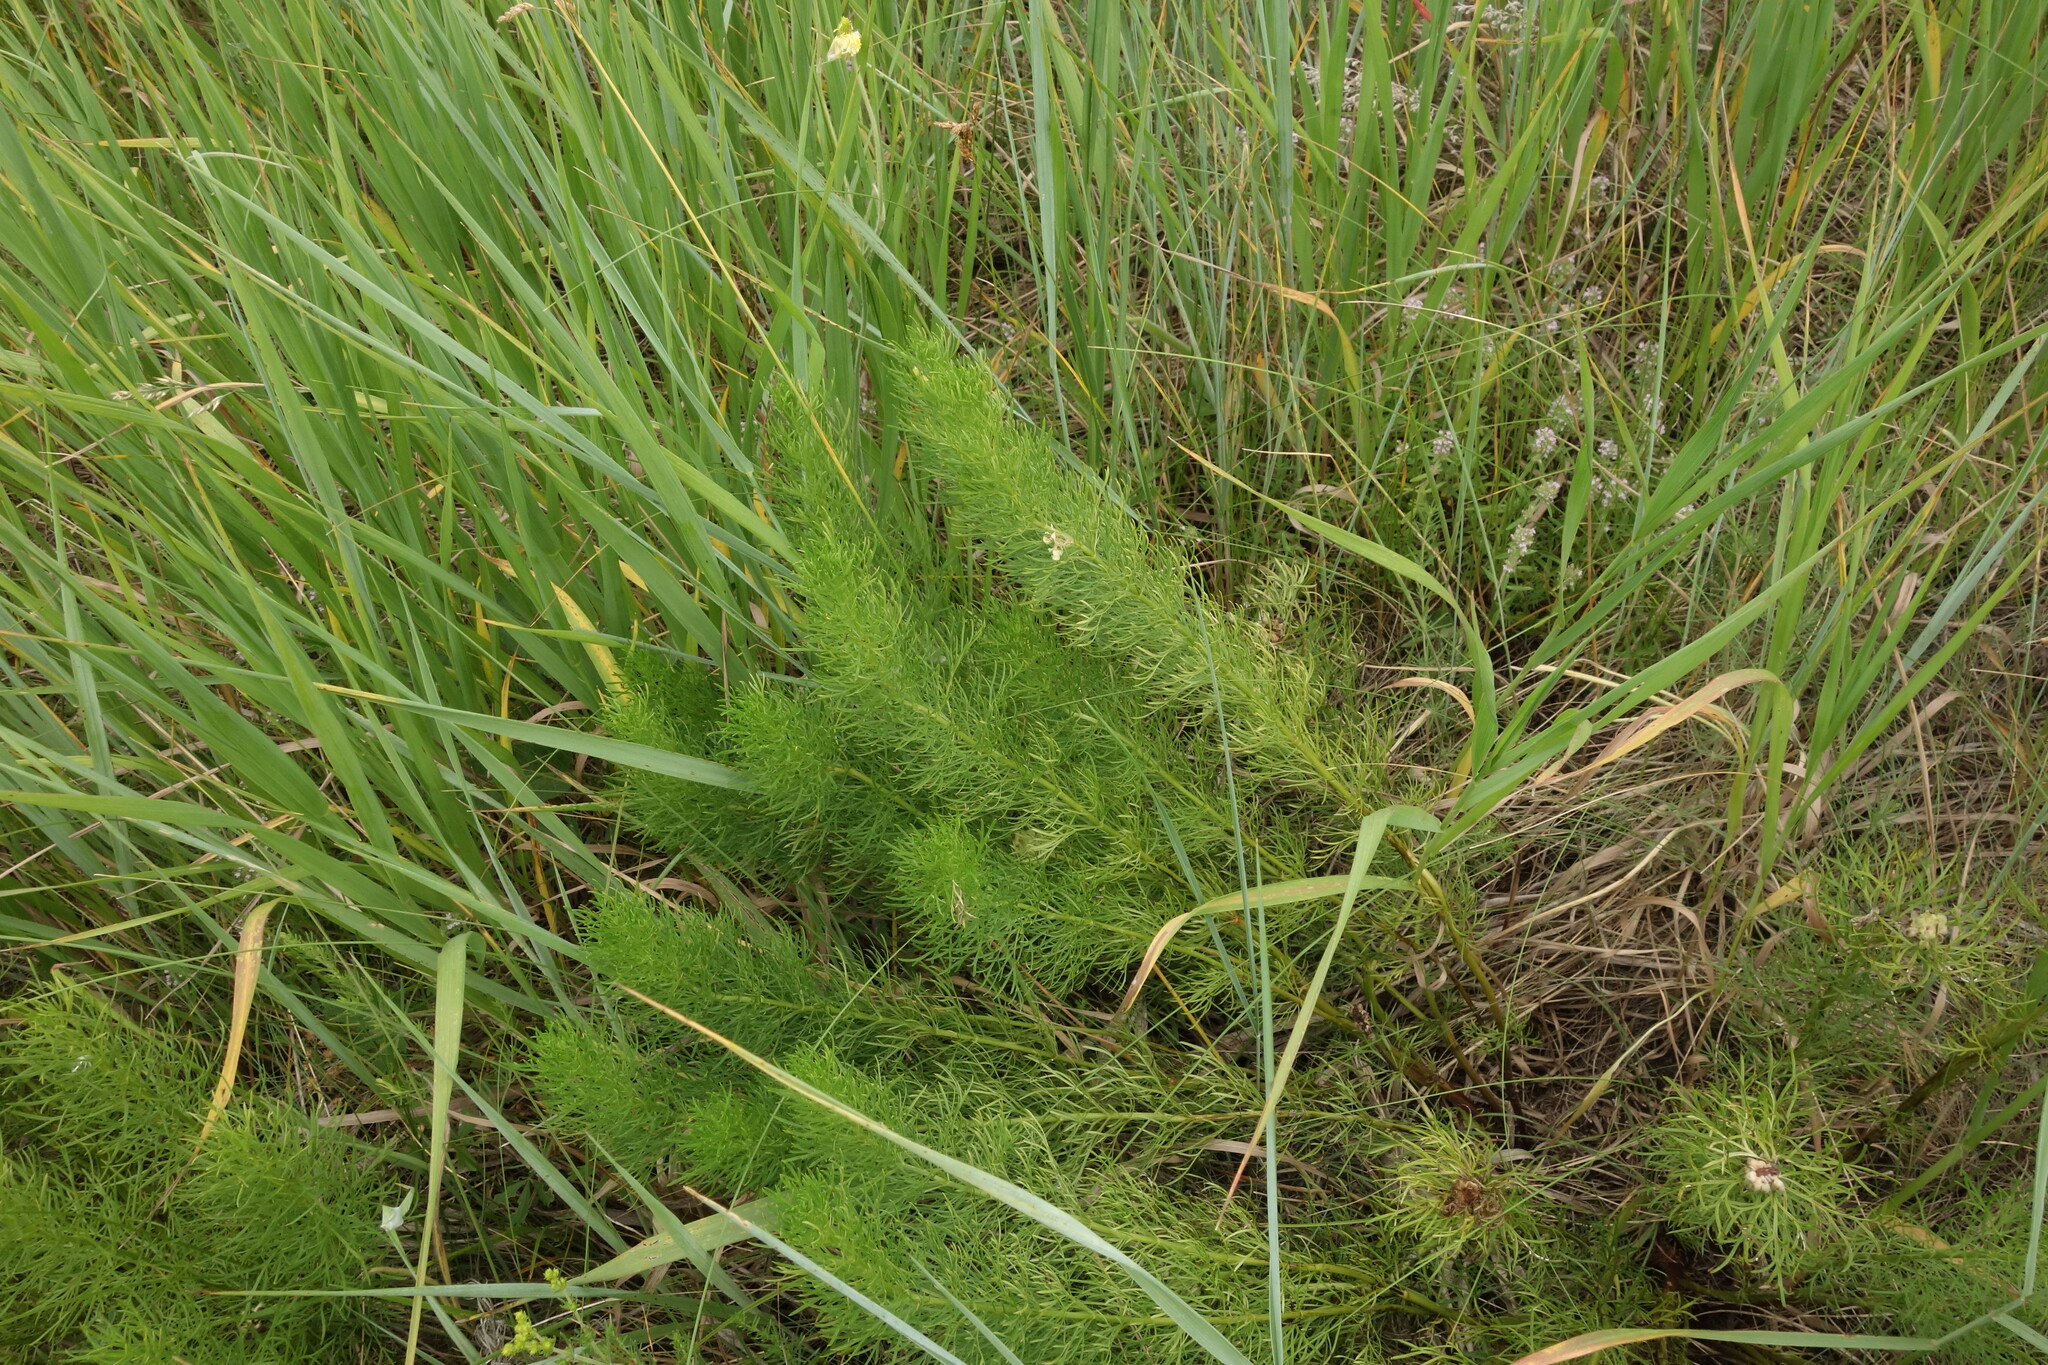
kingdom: Plantae
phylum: Tracheophyta
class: Magnoliopsida
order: Ranunculales
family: Ranunculaceae
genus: Adonis
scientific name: Adonis vernalis
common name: Yellow pheasants-eye
